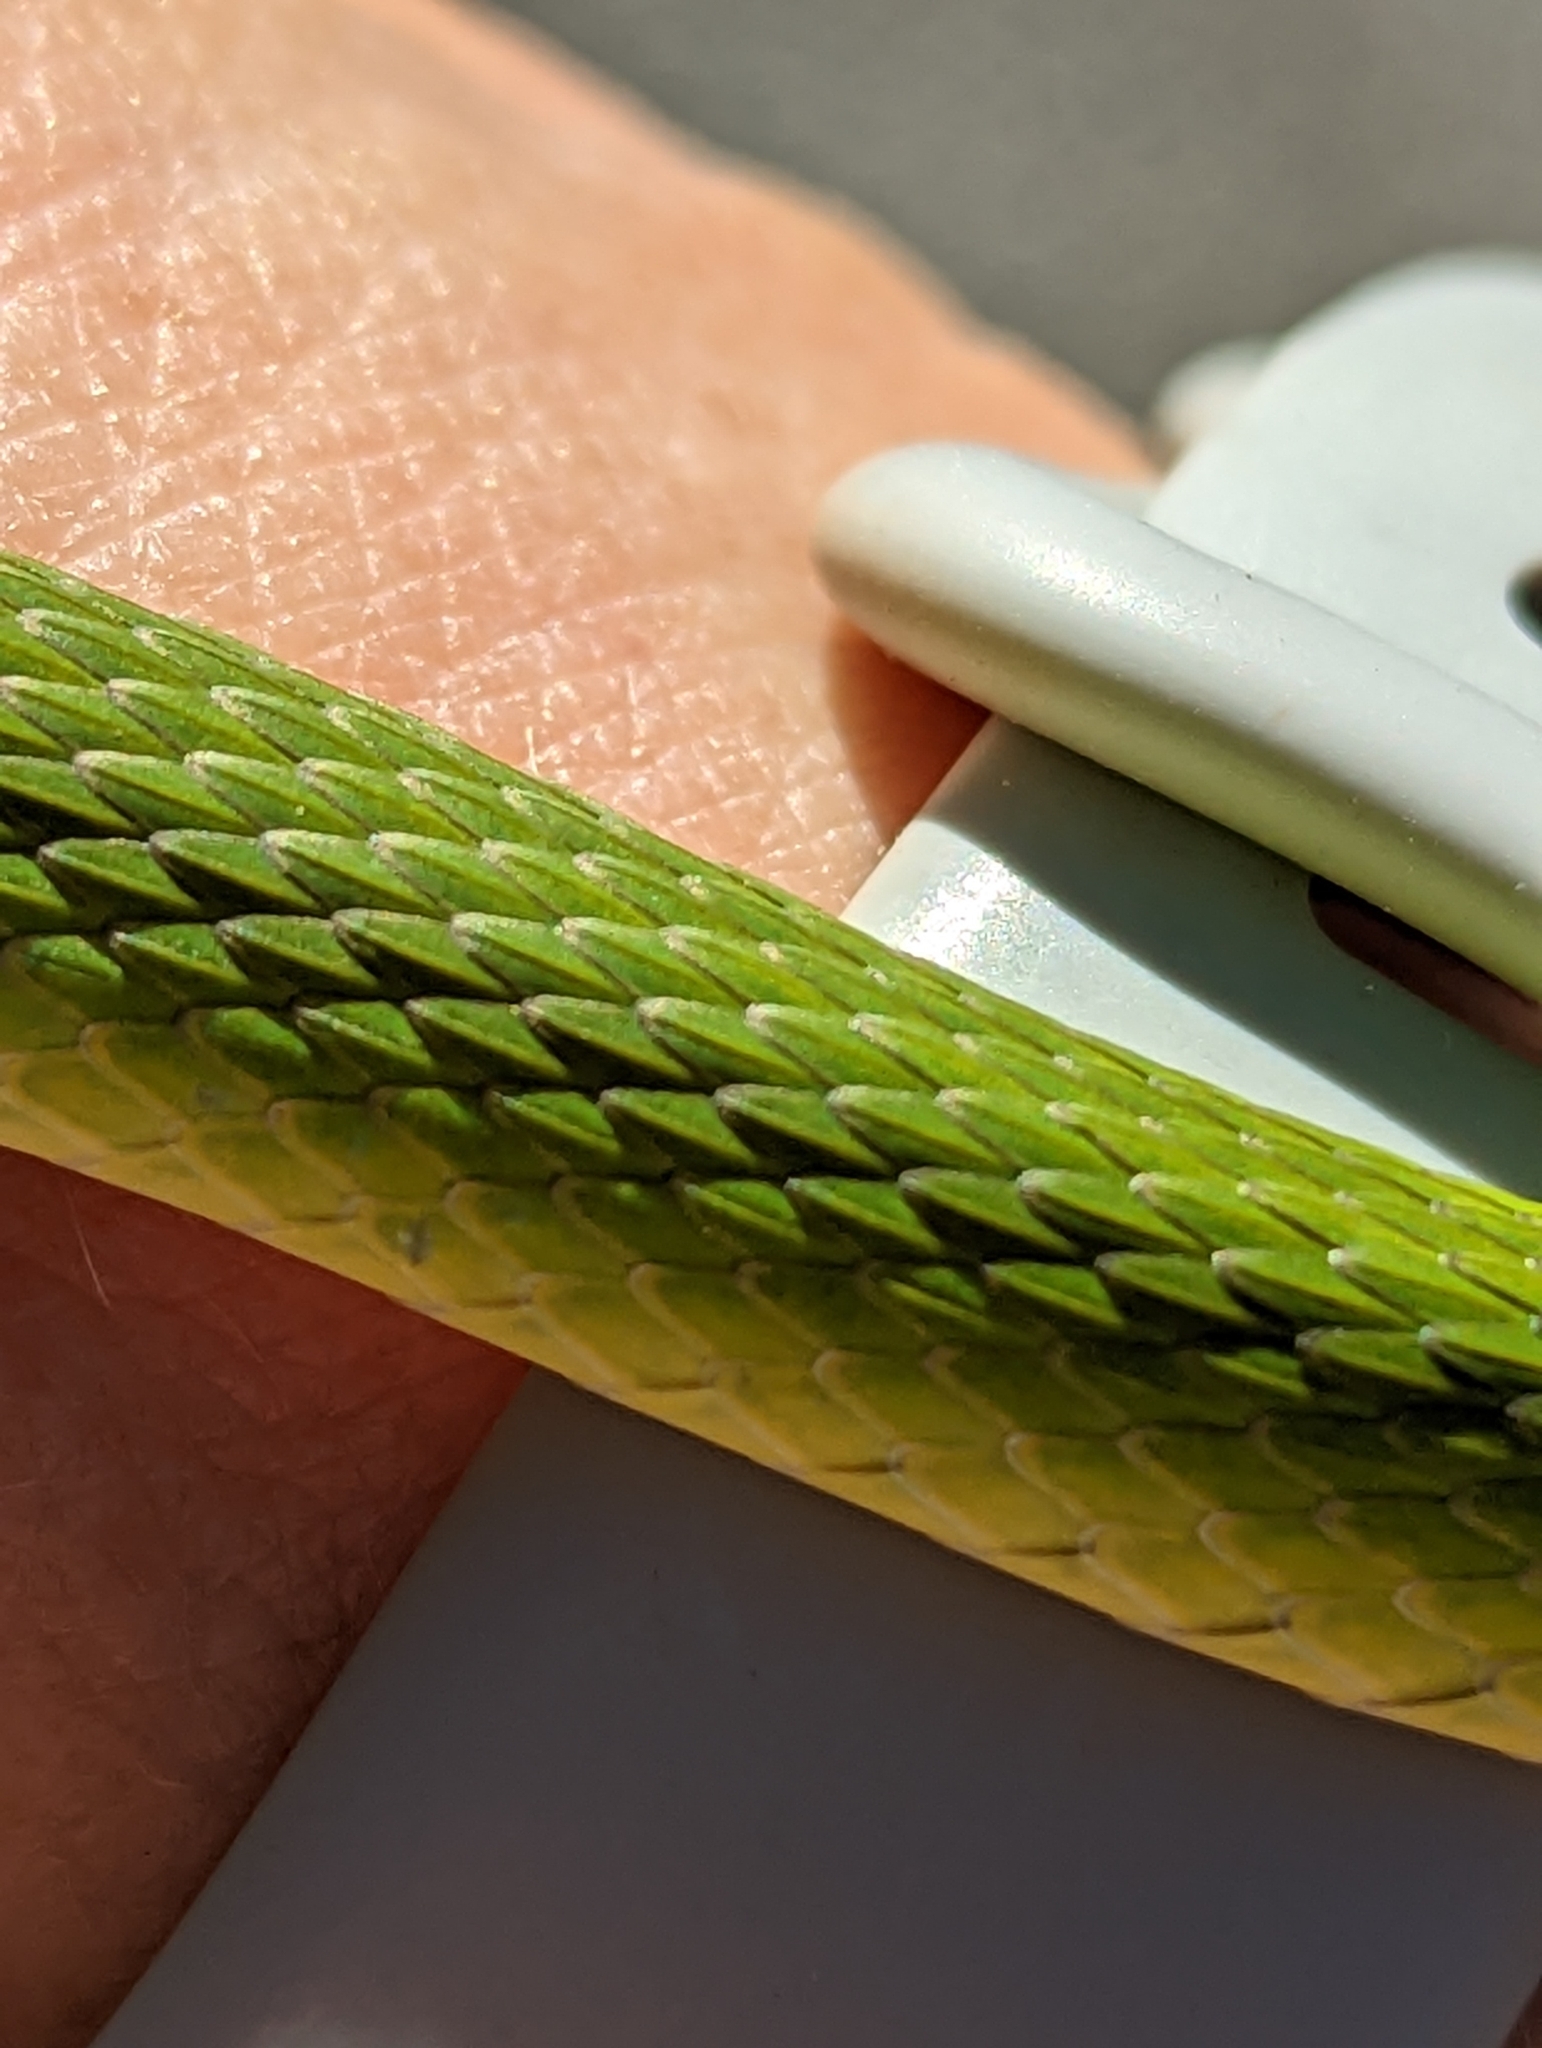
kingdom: Animalia
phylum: Chordata
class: Squamata
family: Colubridae
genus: Opheodrys
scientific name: Opheodrys aestivus
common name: Rough greensnake
